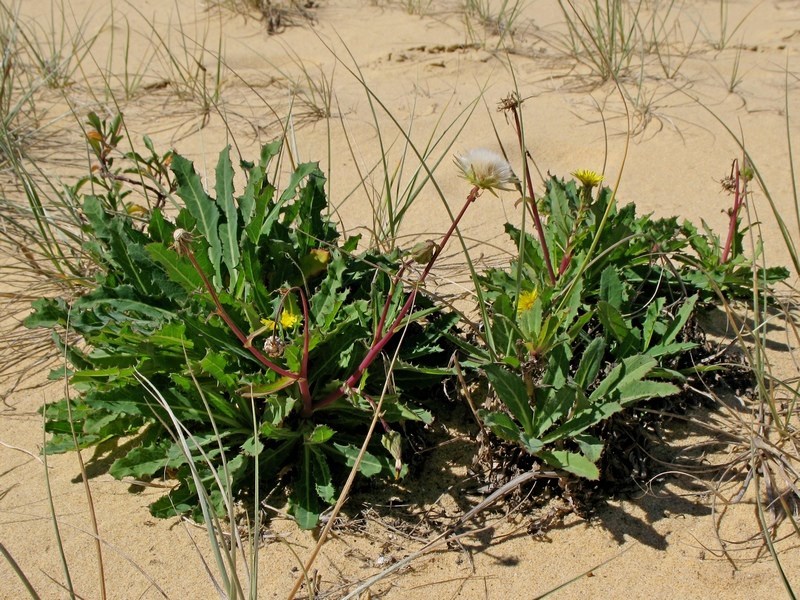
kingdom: Plantae
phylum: Tracheophyta
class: Magnoliopsida
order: Asterales
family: Asteraceae
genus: Sonchus
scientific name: Sonchus megalocarpus
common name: Dune thistle
